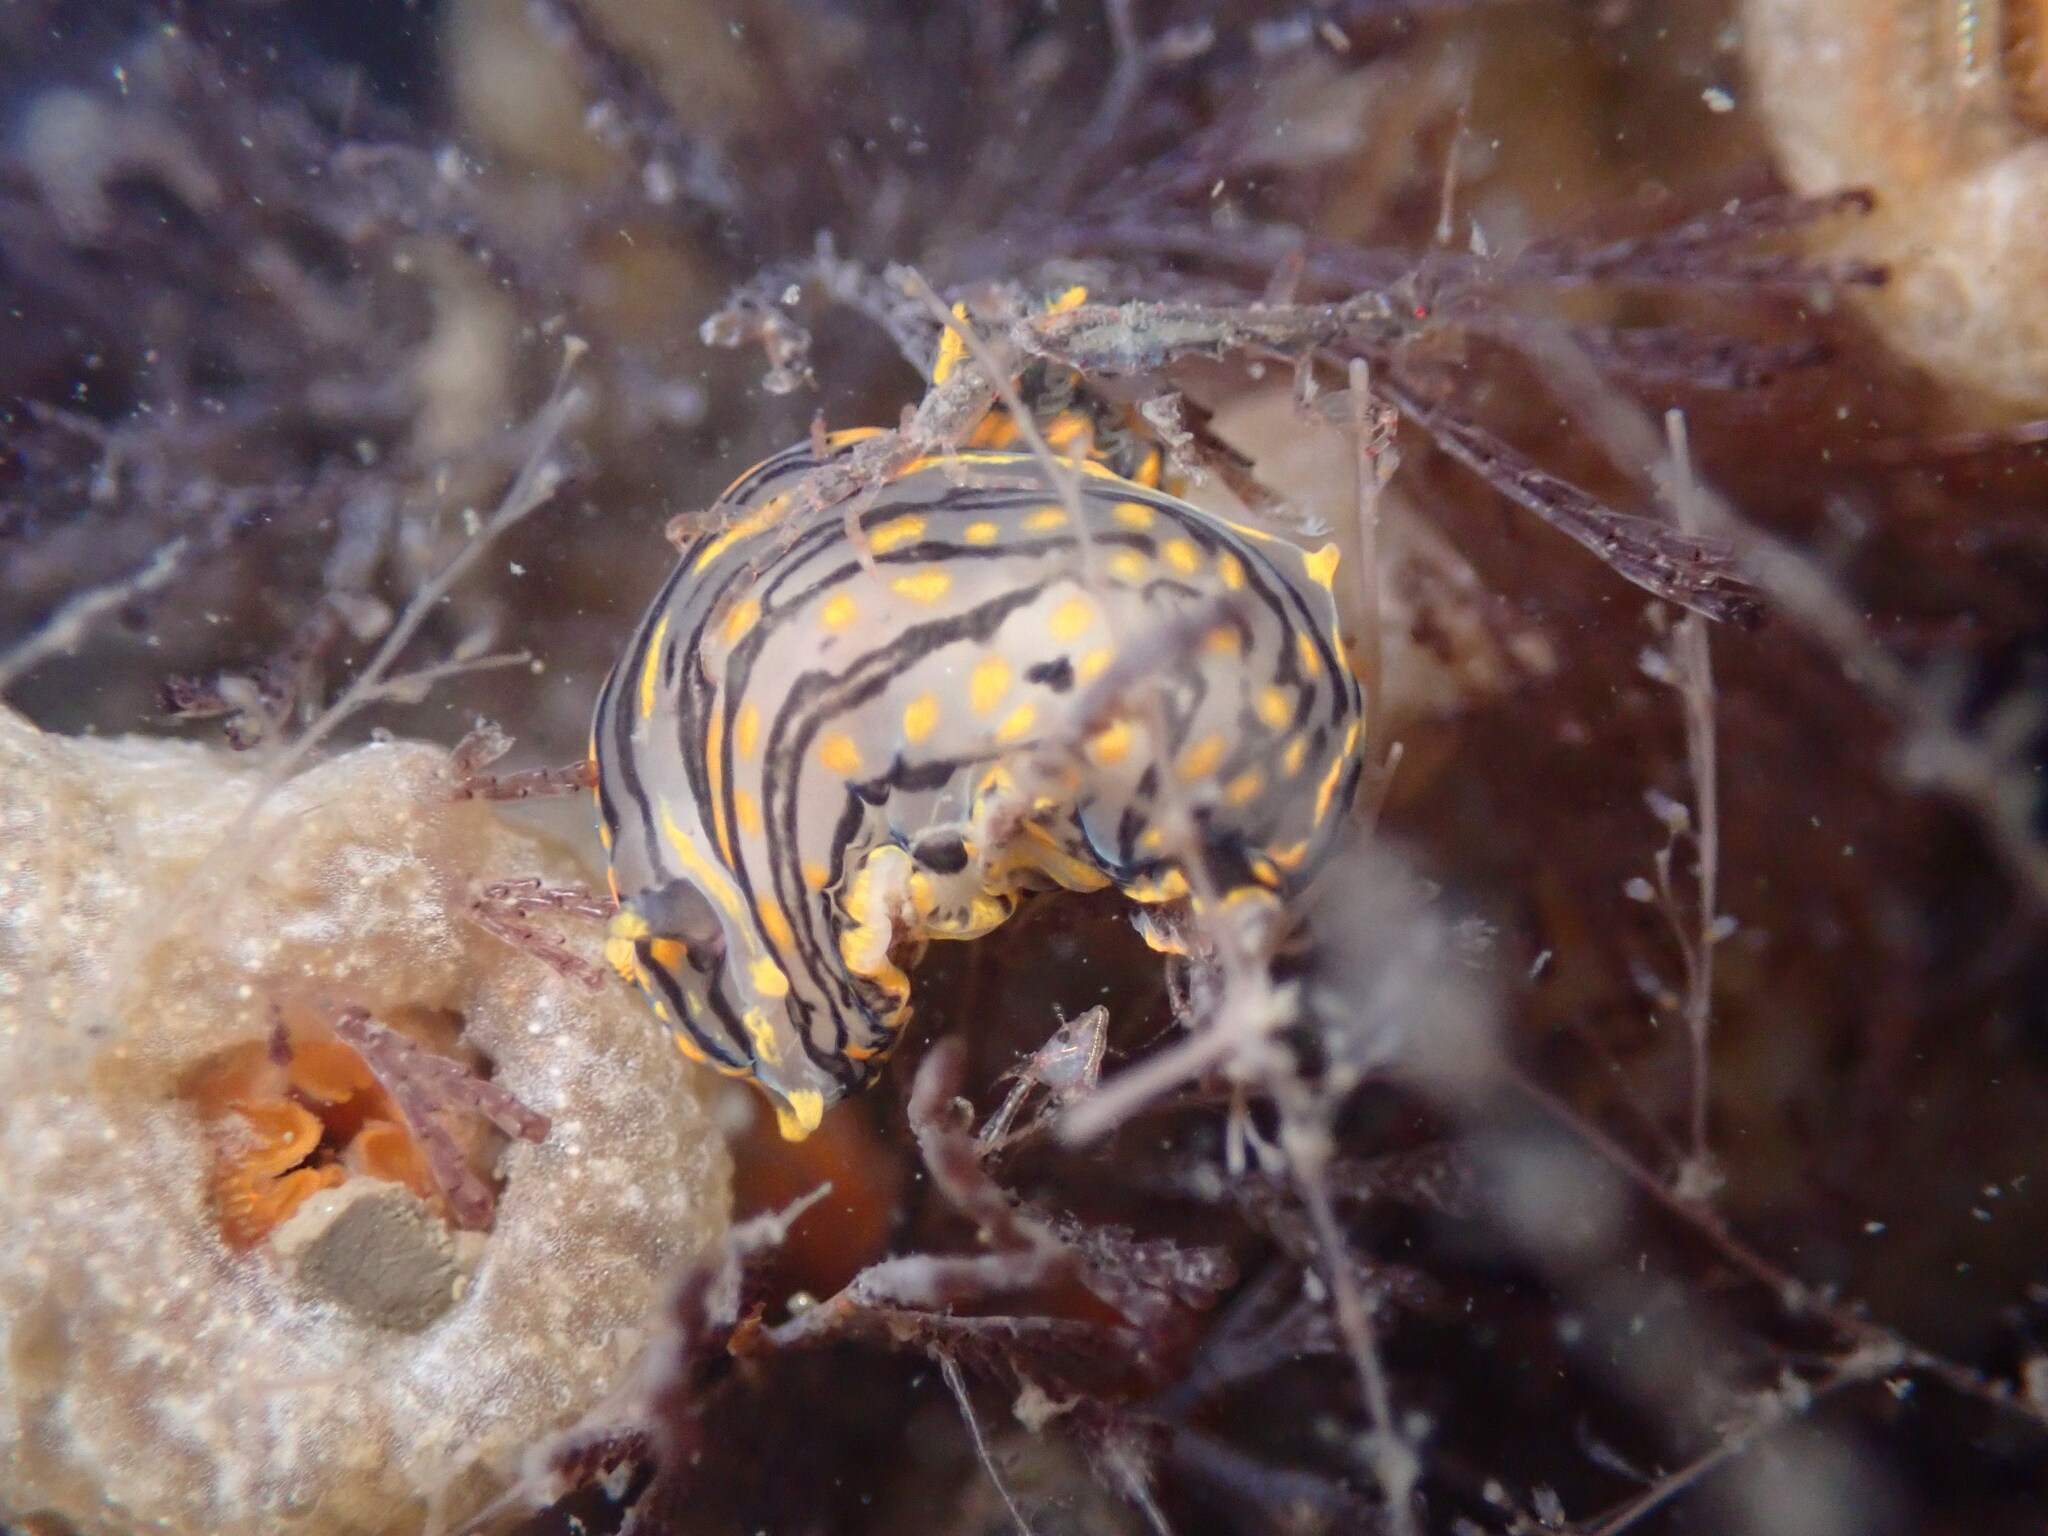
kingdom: Animalia
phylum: Mollusca
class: Gastropoda
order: Nudibranchia
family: Polyceridae
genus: Polycera
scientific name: Polycera atra
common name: Orange-spike polycera
